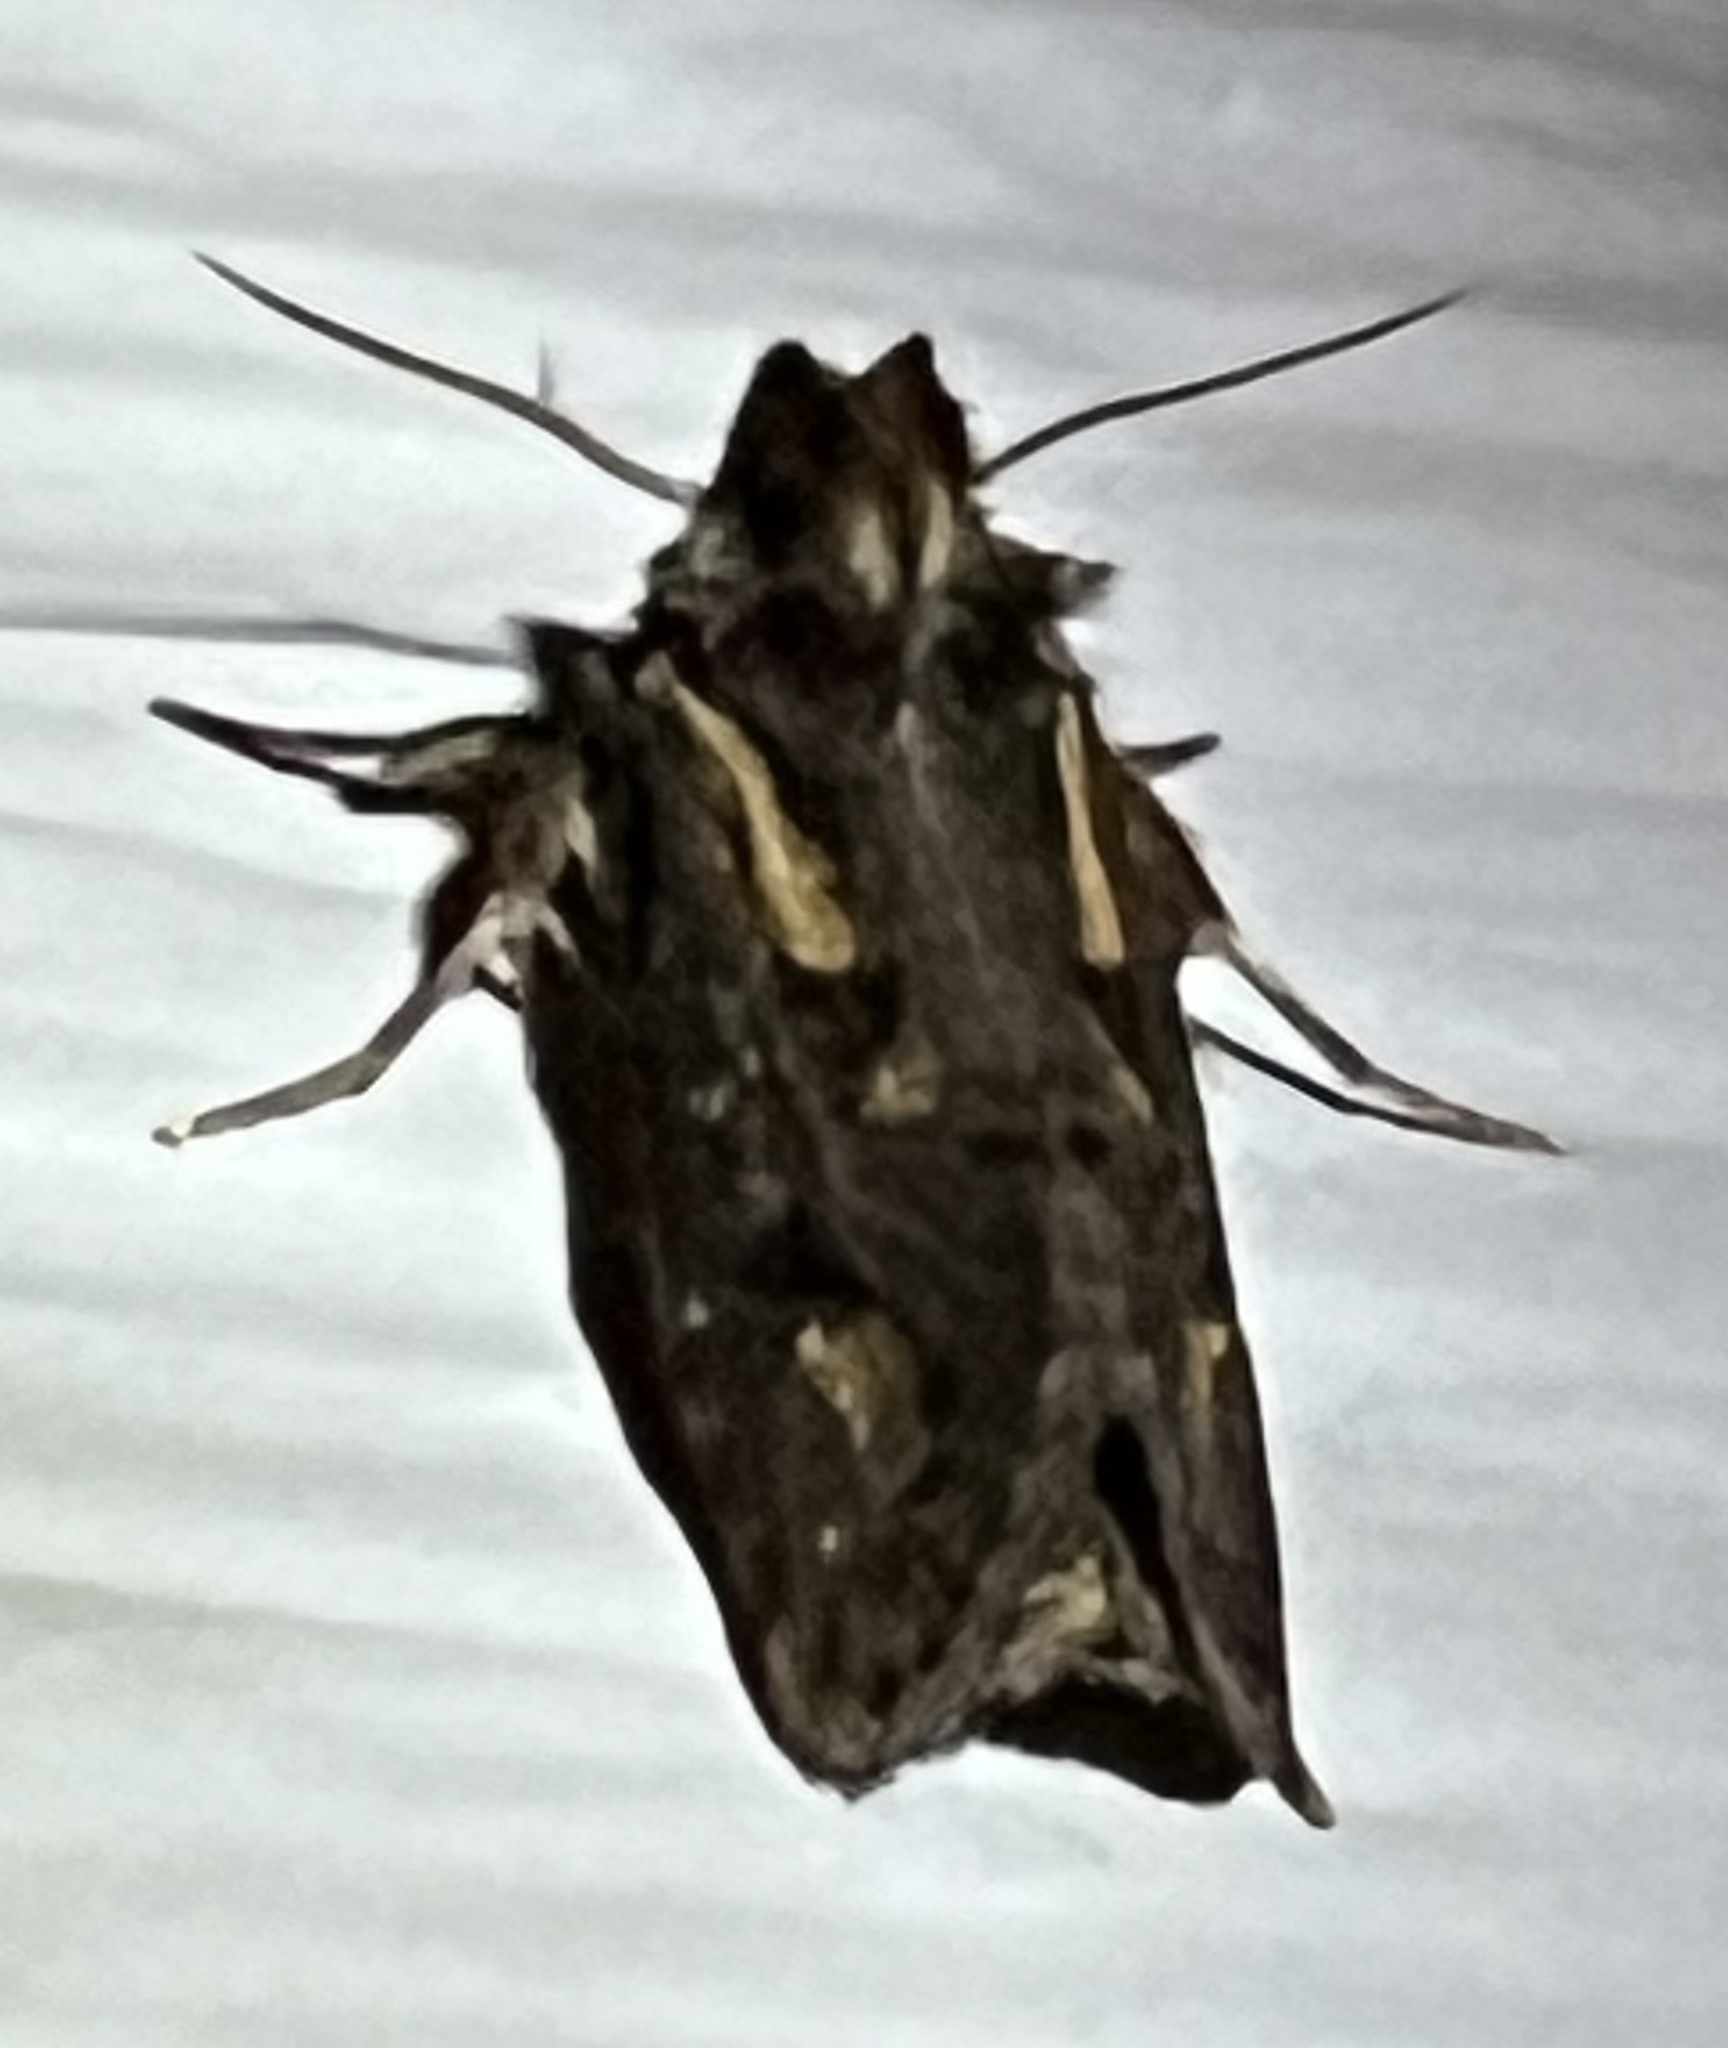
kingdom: Animalia
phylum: Arthropoda
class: Insecta
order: Lepidoptera
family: Tineidae
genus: Acrolophus
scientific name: Acrolophus popeanella
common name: Clemens' grass tubeworm moth
